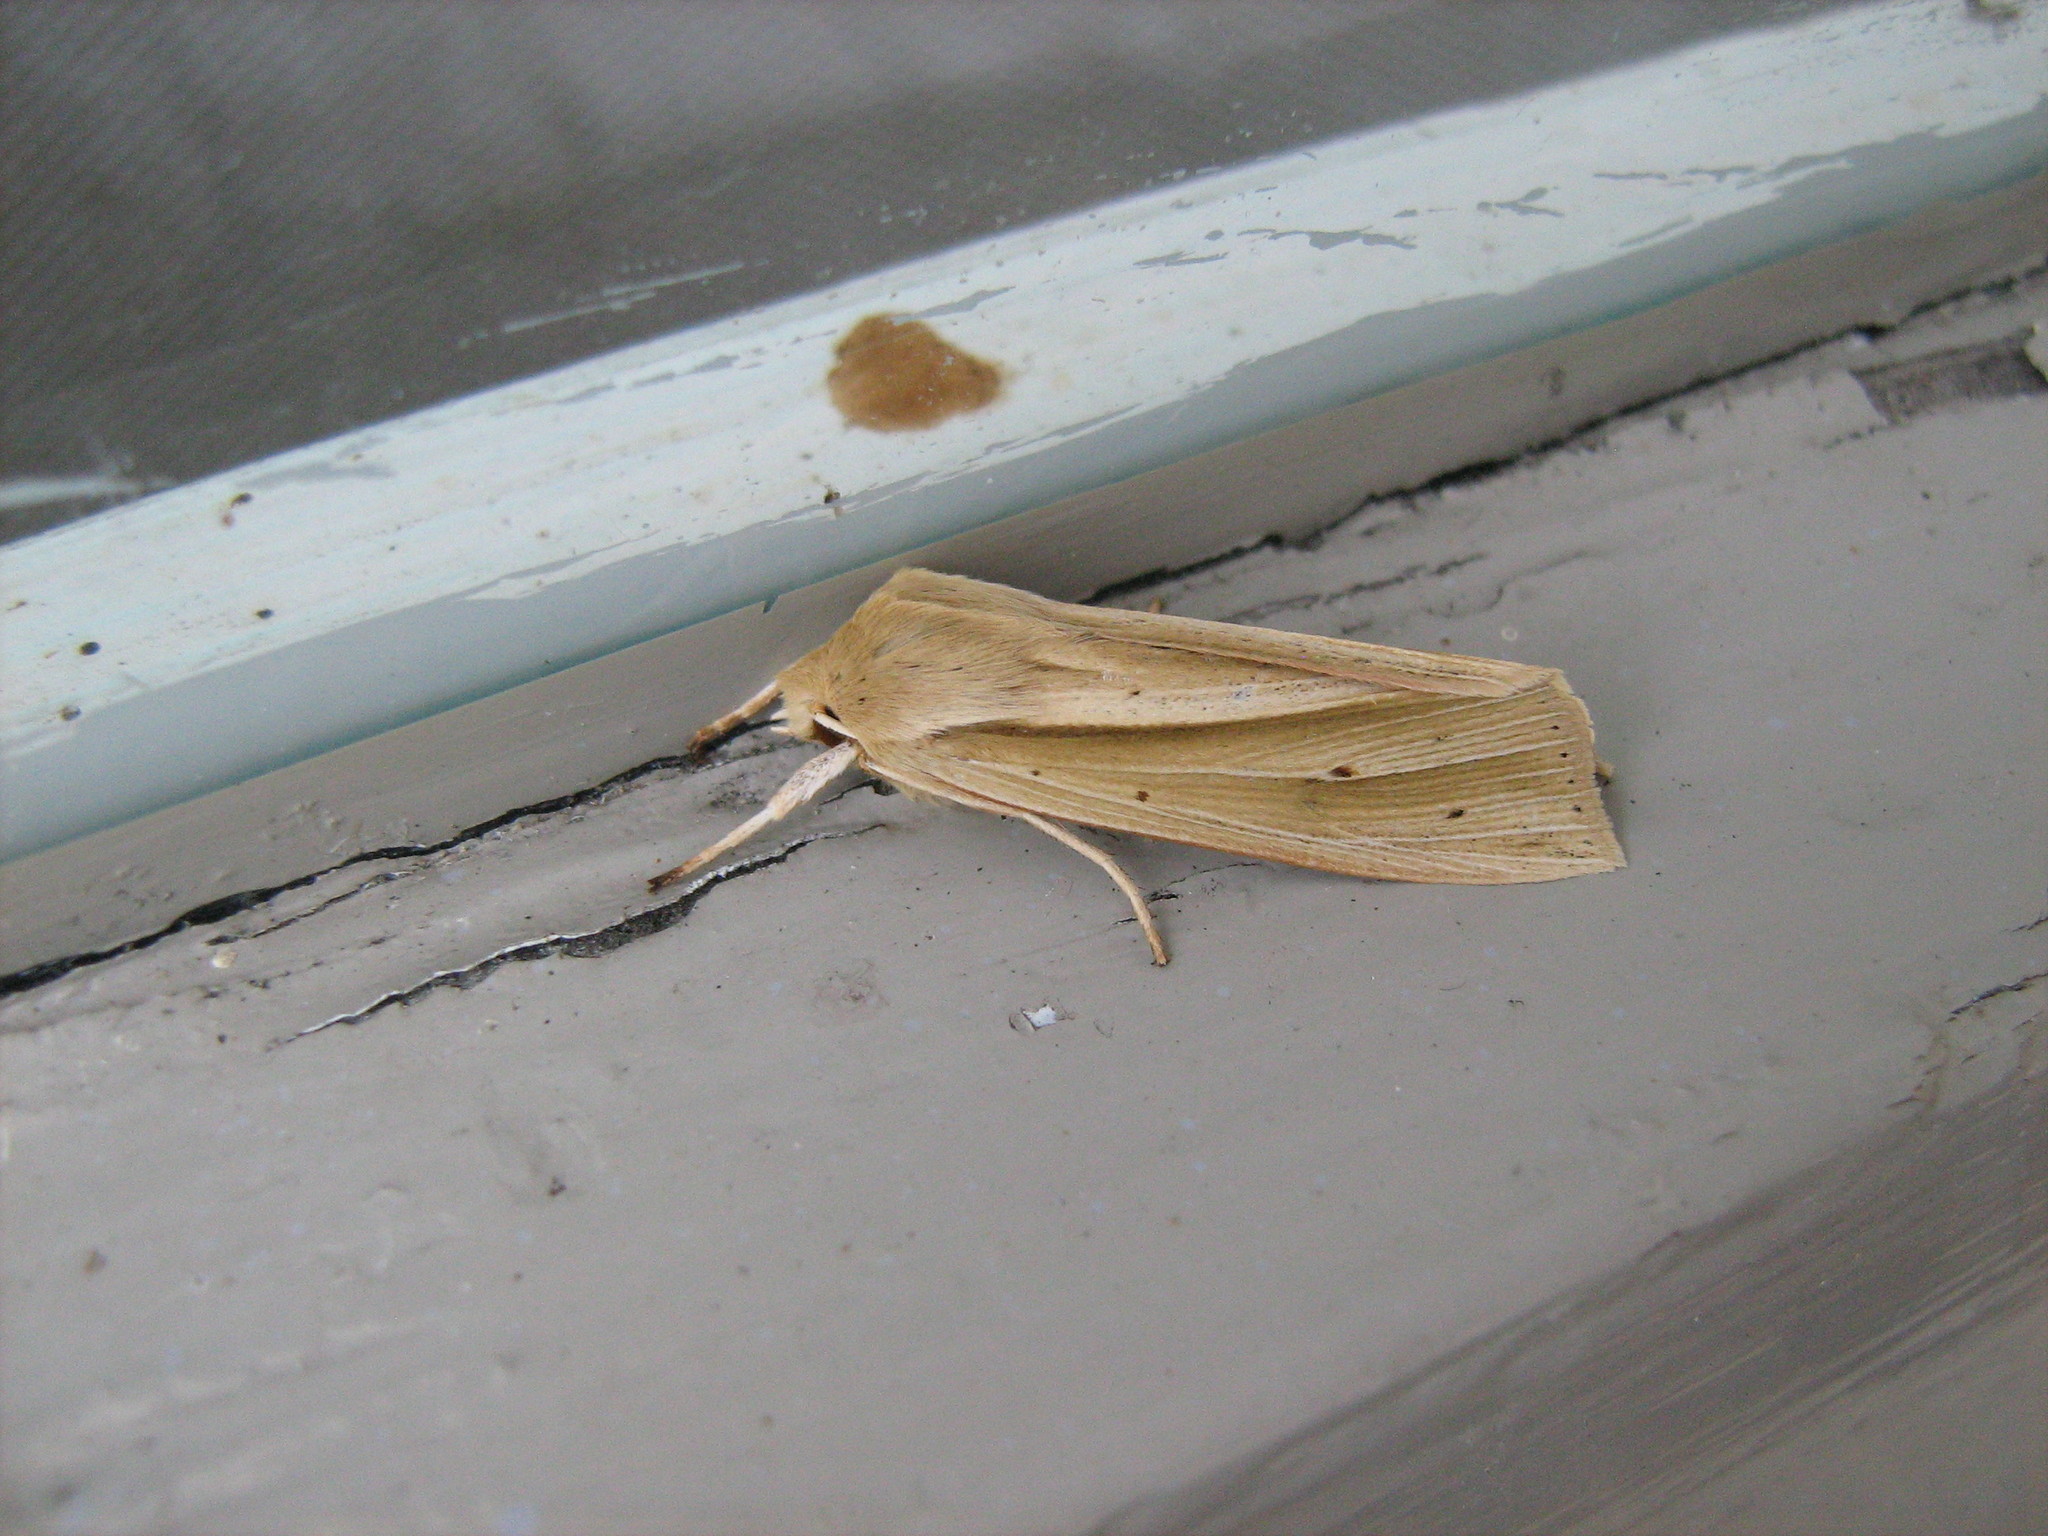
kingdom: Animalia
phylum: Arthropoda
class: Insecta
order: Lepidoptera
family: Noctuidae
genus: Ichneutica
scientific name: Ichneutica sulcana
